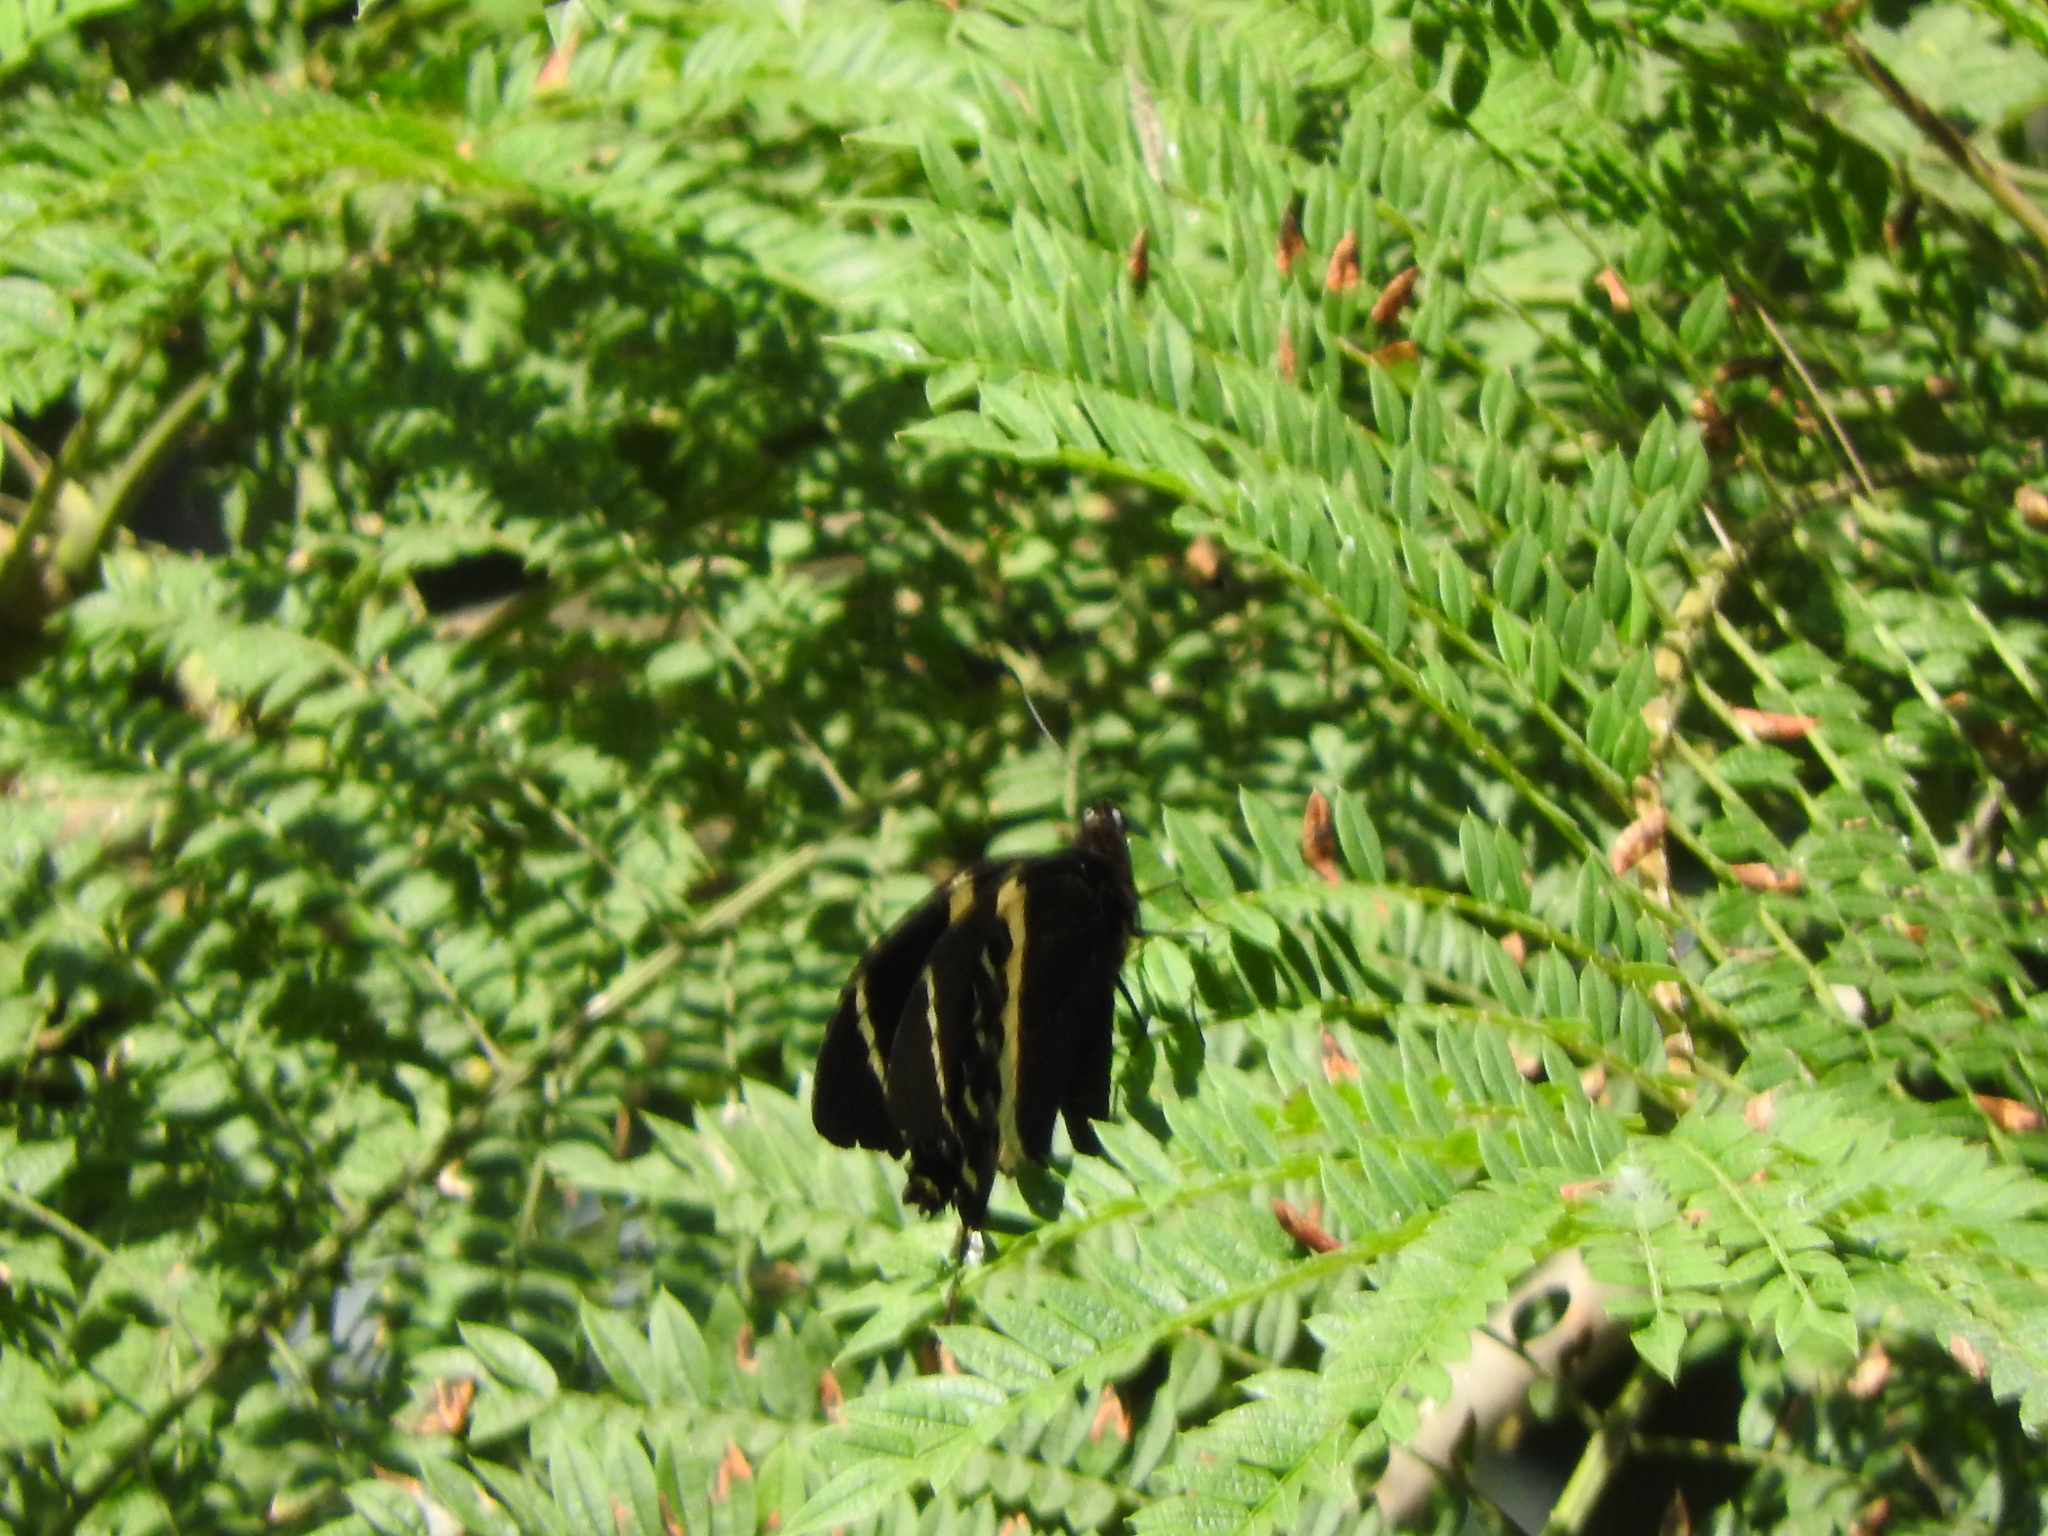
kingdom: Animalia
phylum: Arthropoda
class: Insecta
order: Lepidoptera
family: Papilionidae
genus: Papilio
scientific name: Papilio garamas
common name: Magnificent swallowtail
